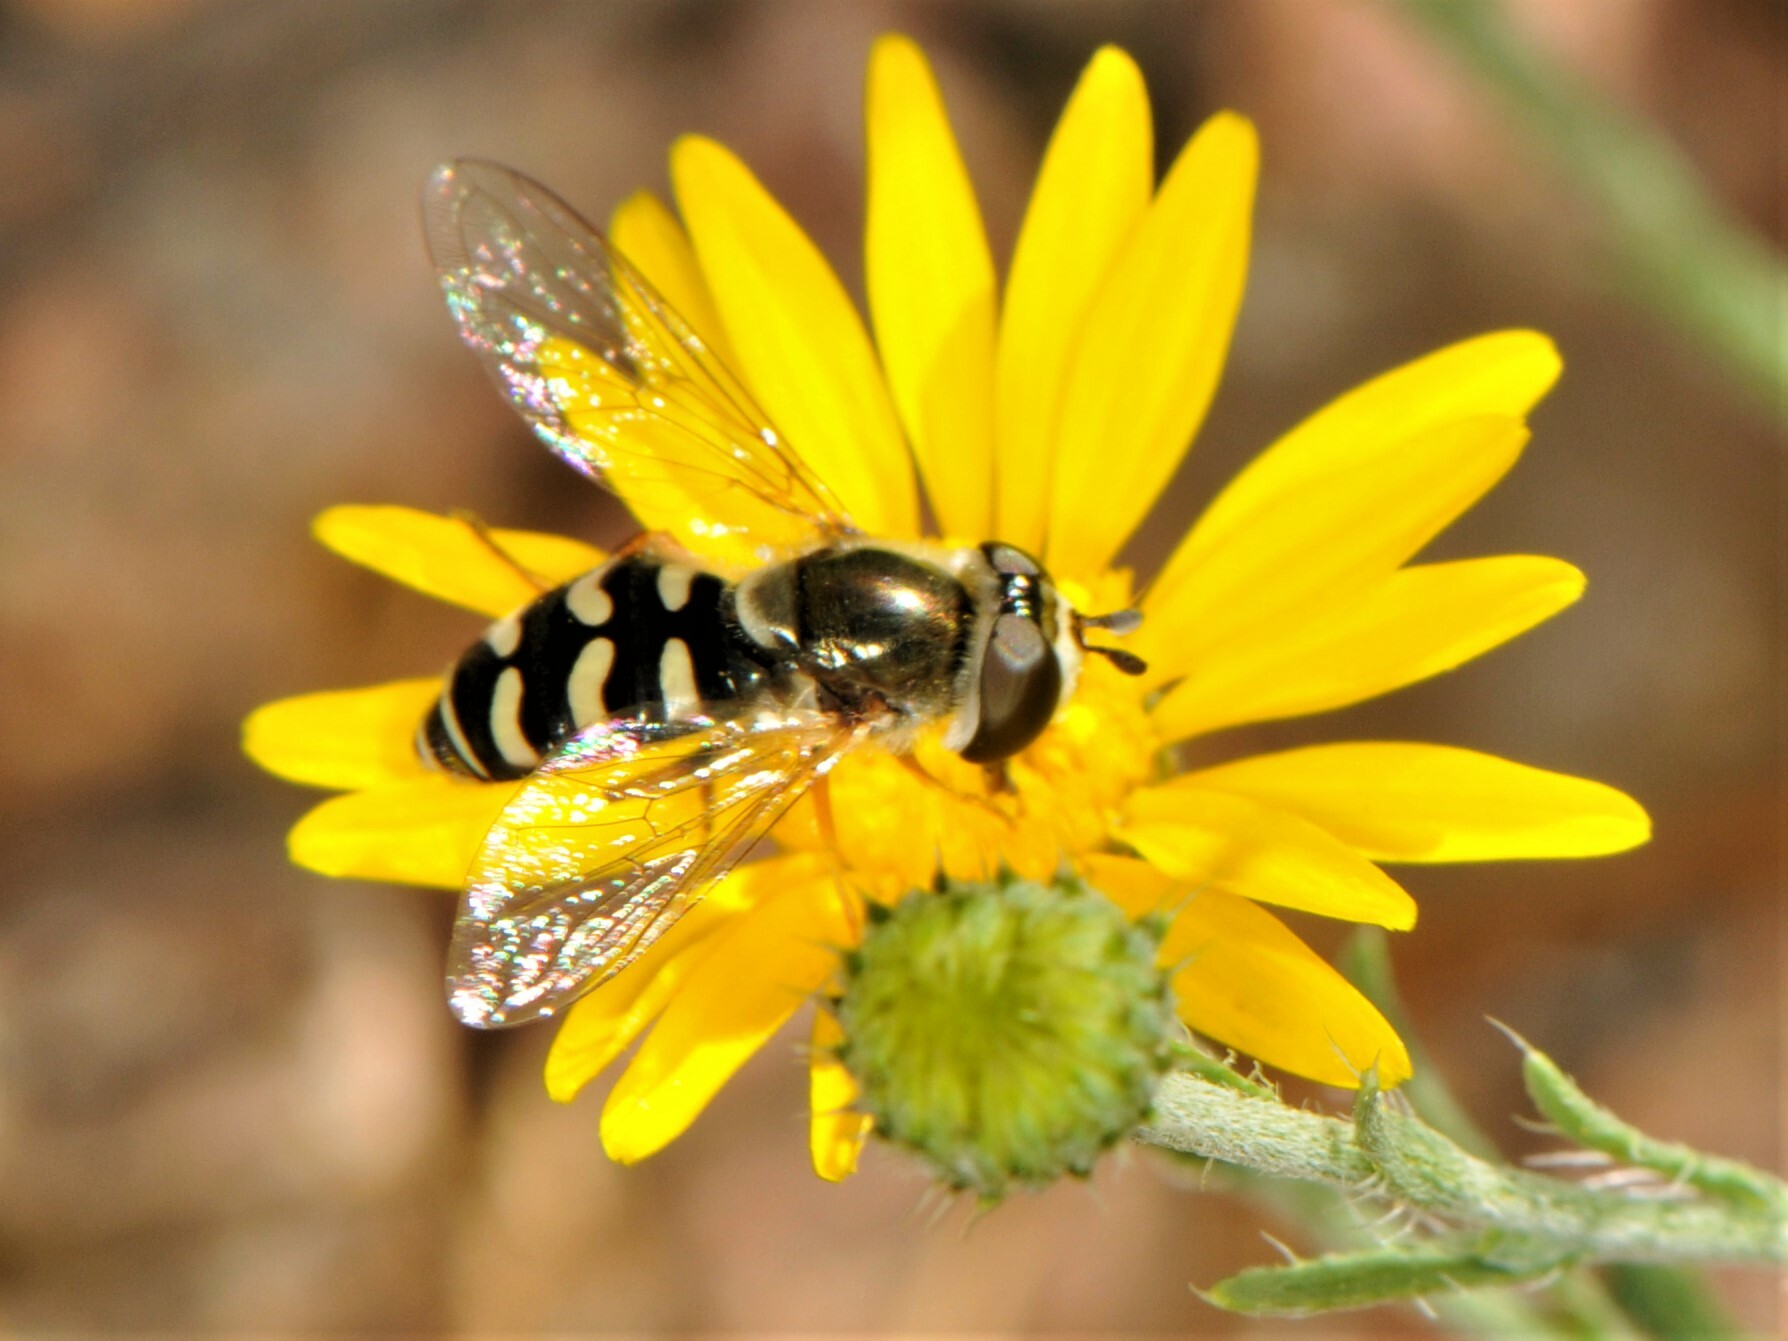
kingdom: Animalia
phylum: Arthropoda
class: Insecta
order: Diptera
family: Syrphidae
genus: Eupeodes
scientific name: Eupeodes volucris
